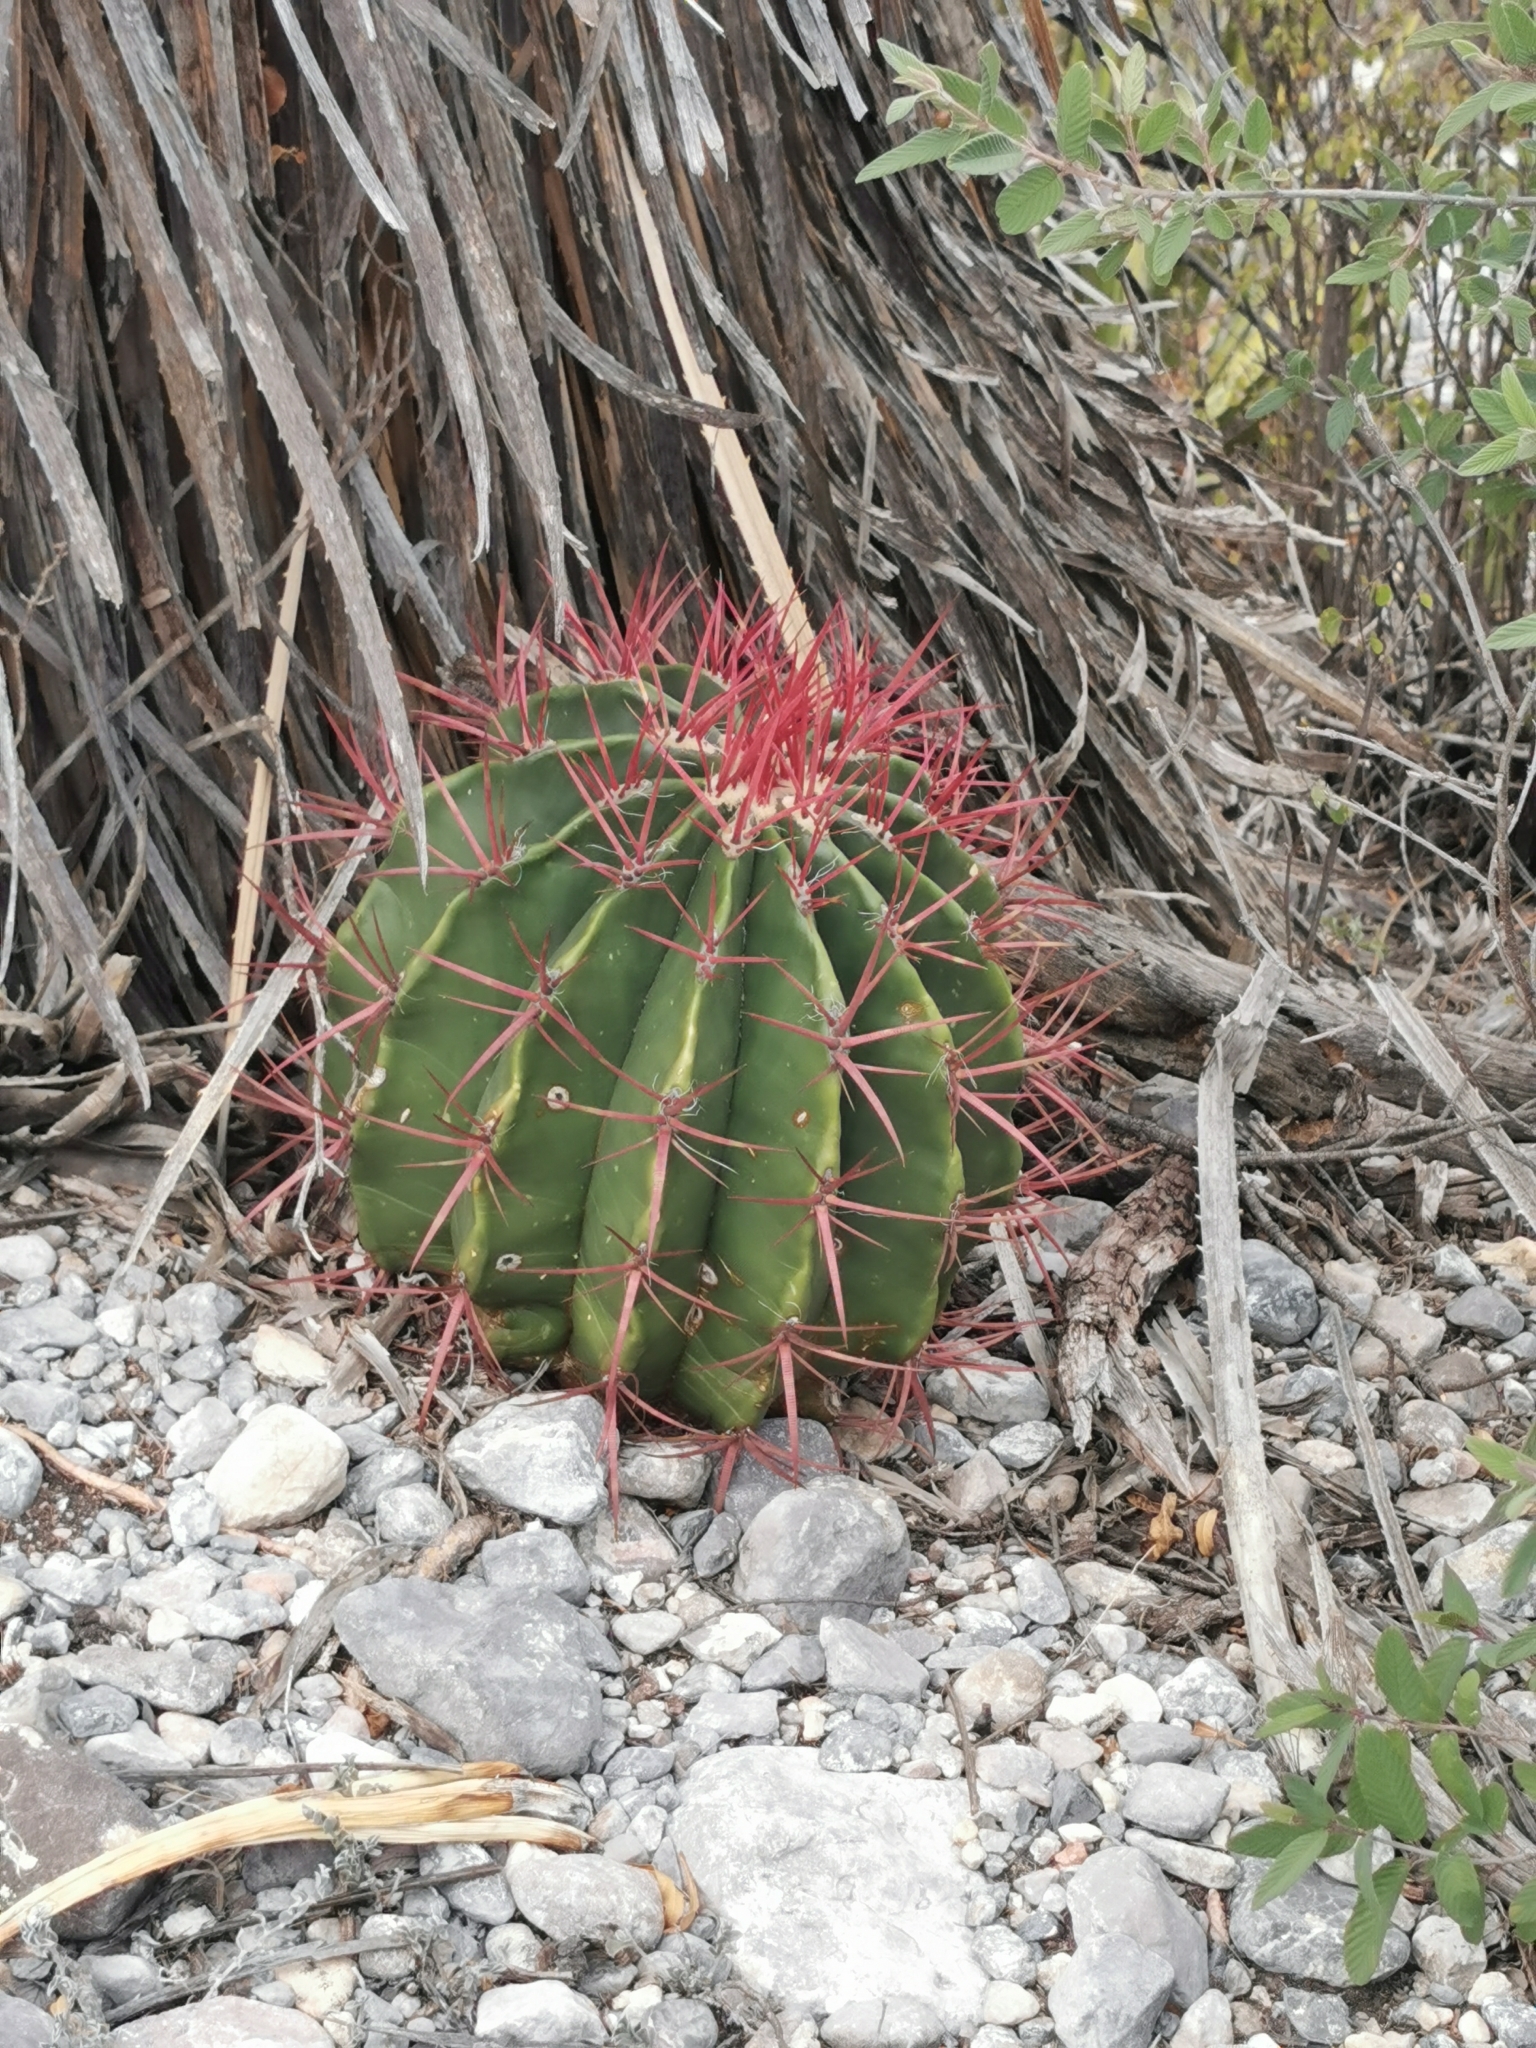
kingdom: Plantae
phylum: Tracheophyta
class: Magnoliopsida
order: Caryophyllales
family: Cactaceae
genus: Ferocactus
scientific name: Ferocactus pilosus
